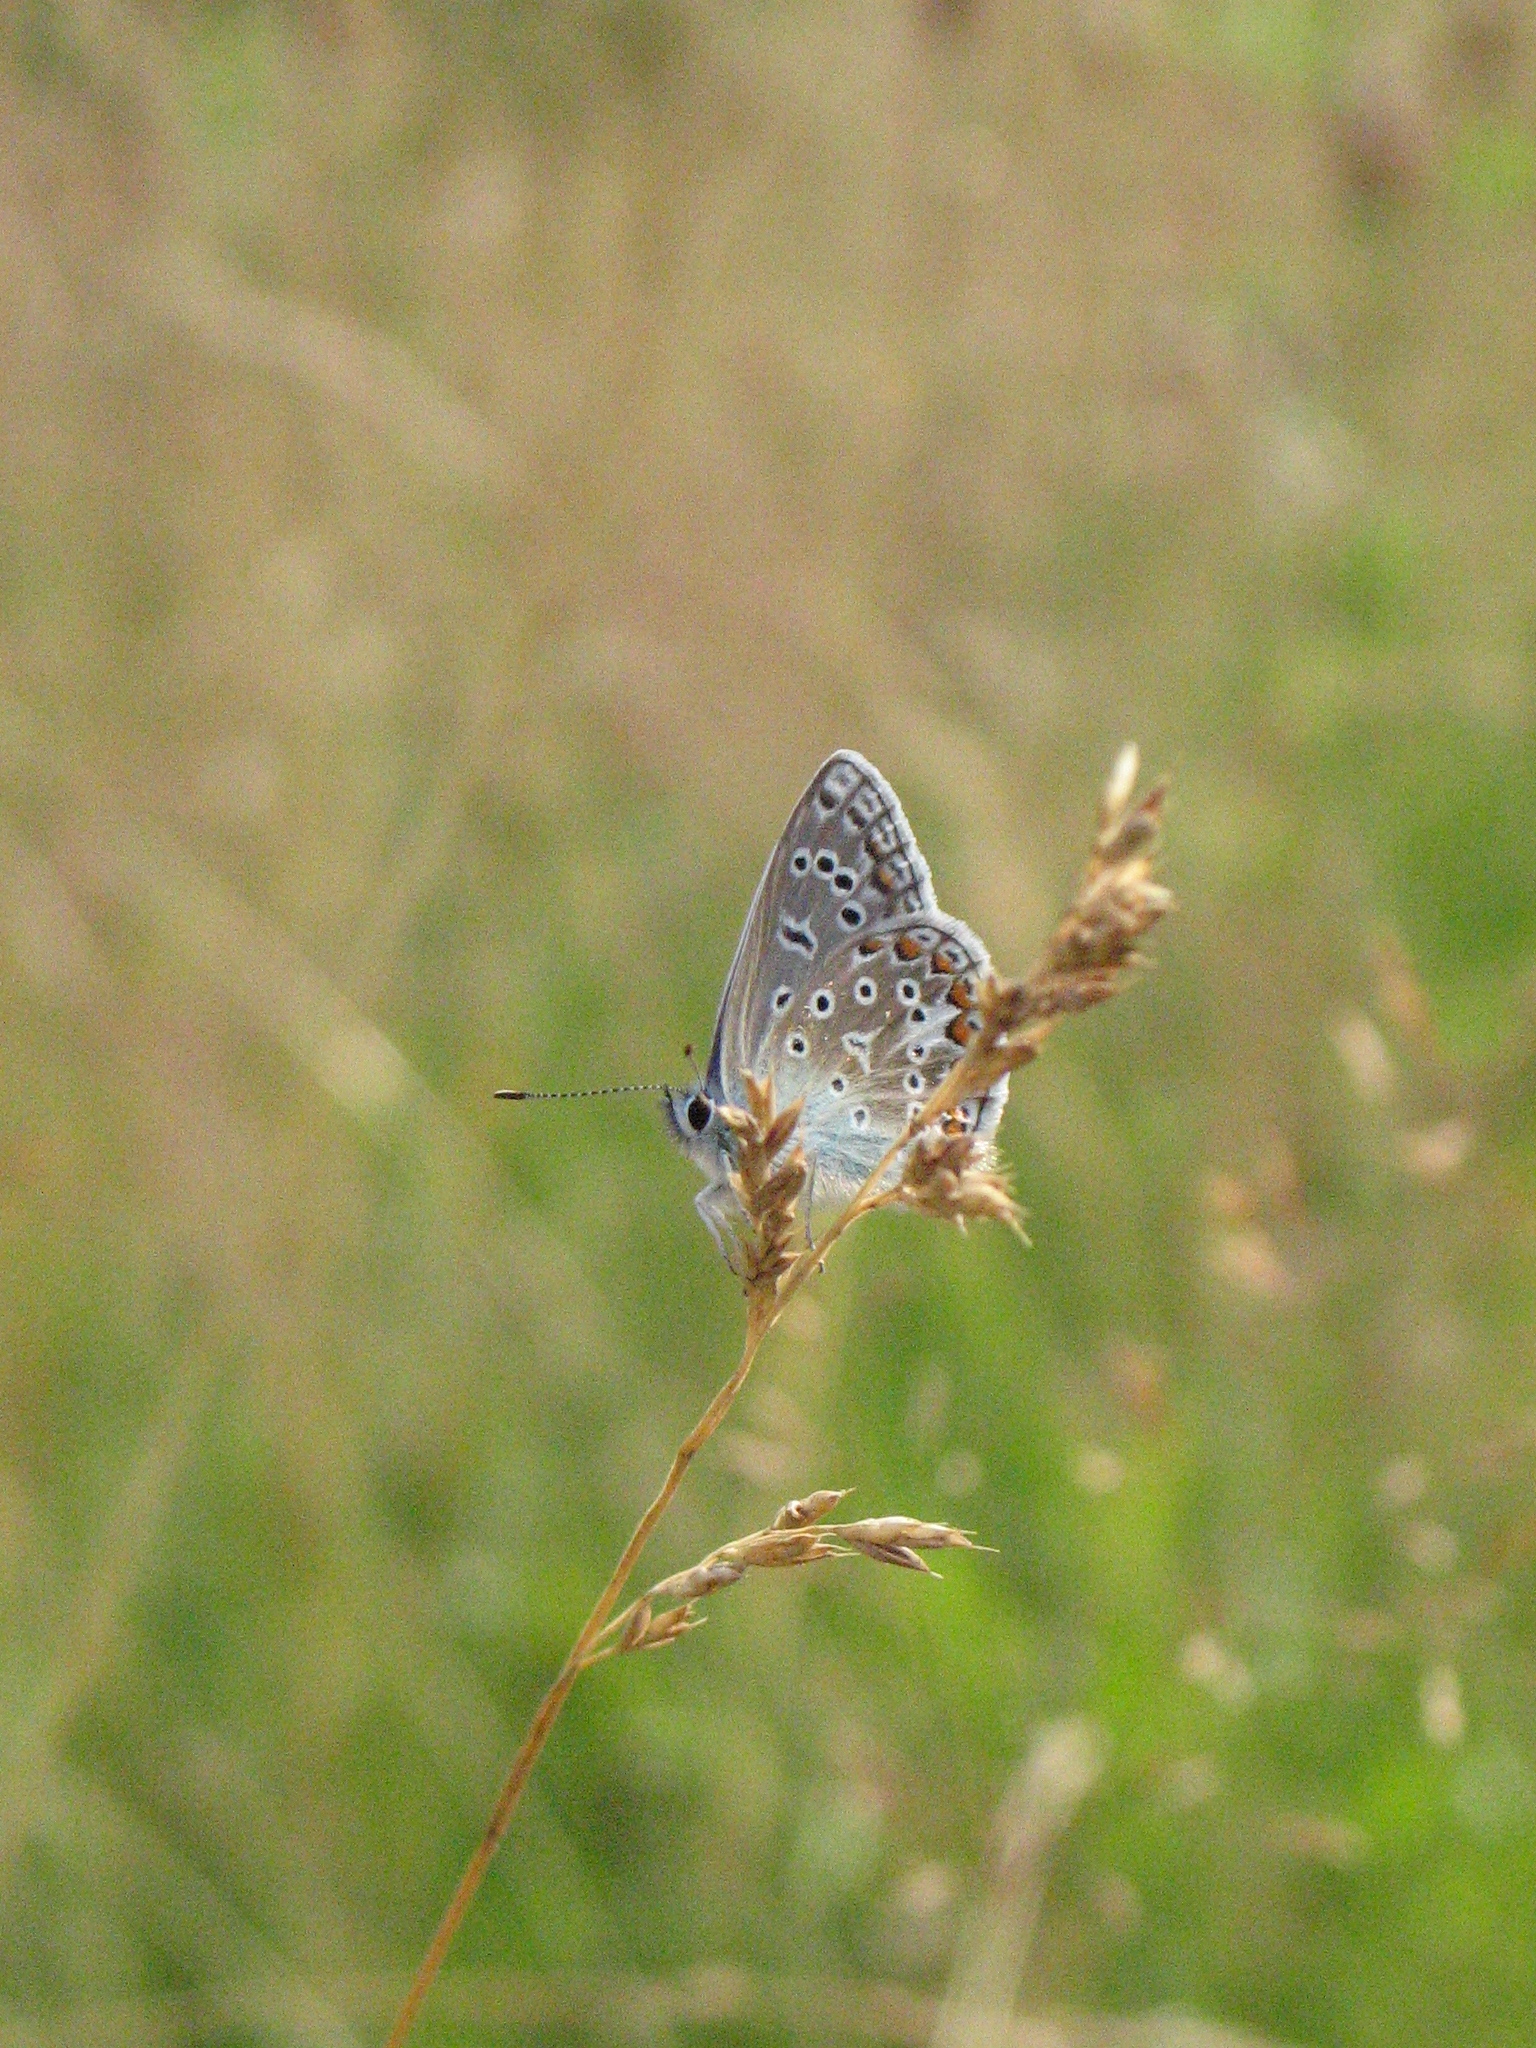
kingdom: Animalia
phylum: Arthropoda
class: Insecta
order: Lepidoptera
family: Lycaenidae
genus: Polyommatus
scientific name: Polyommatus icarus
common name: Common blue
